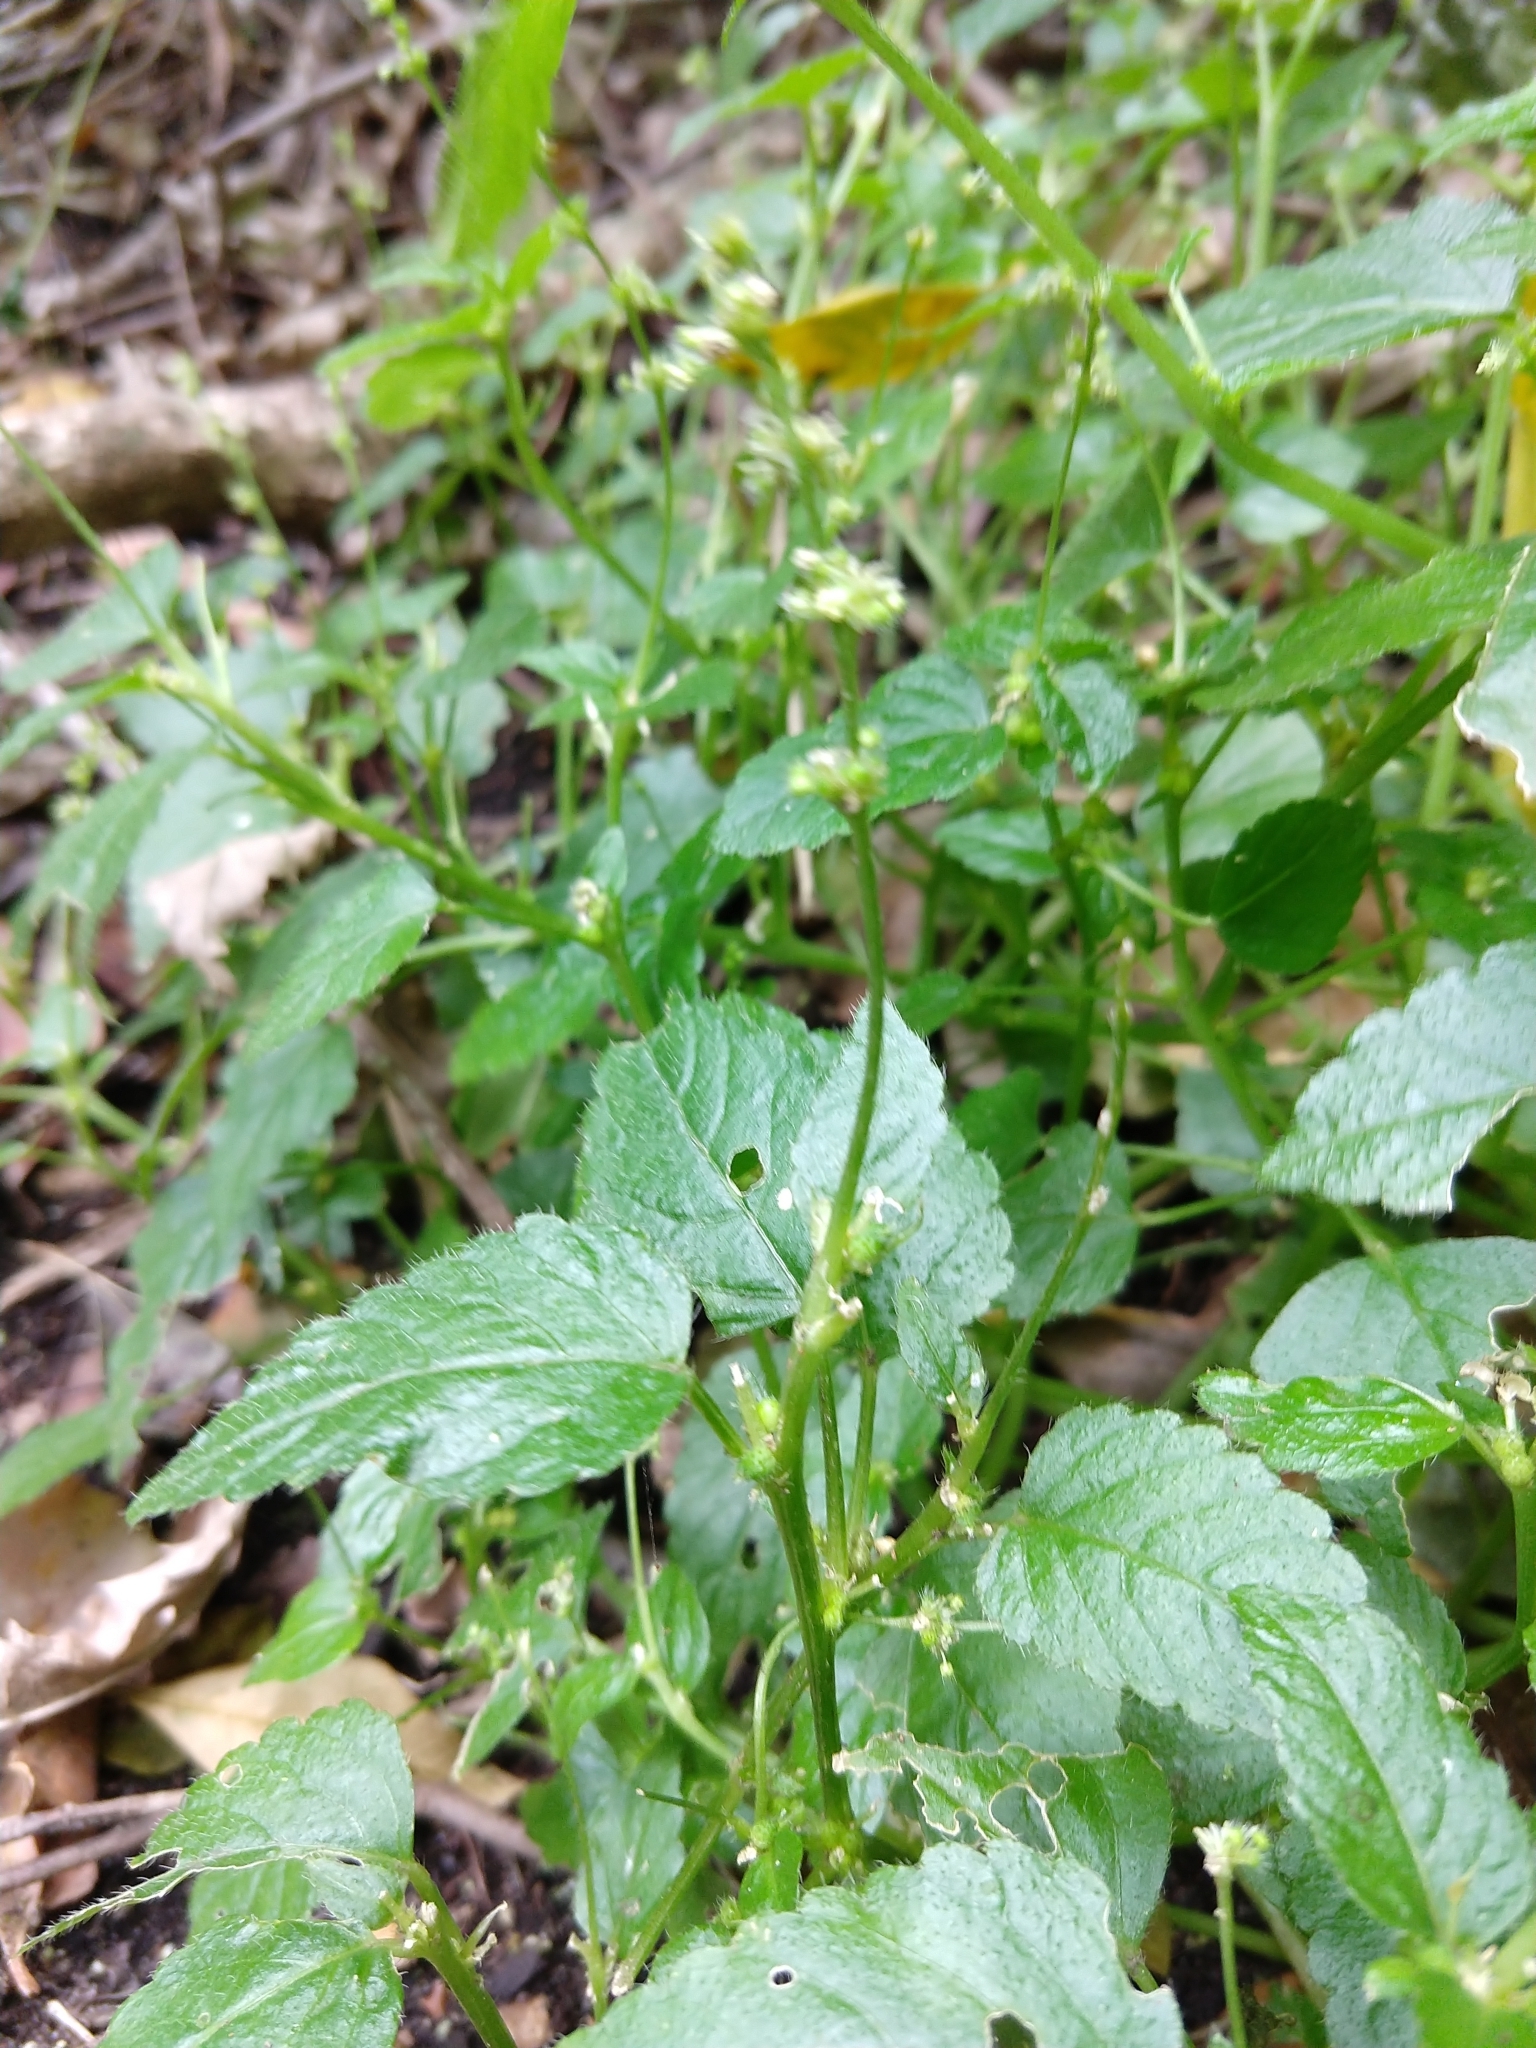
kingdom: Plantae
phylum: Tracheophyta
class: Magnoliopsida
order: Malpighiales
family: Euphorbiaceae
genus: Leidesia
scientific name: Leidesia procumbens
